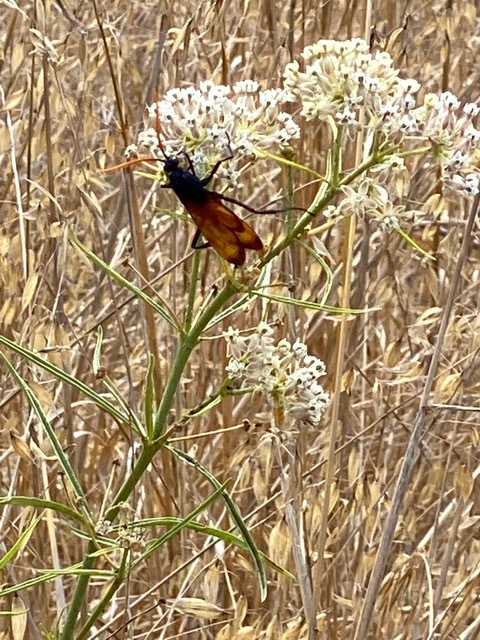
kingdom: Animalia
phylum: Arthropoda
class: Insecta
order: Hymenoptera
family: Pompilidae
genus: Pepsis
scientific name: Pepsis mildei
